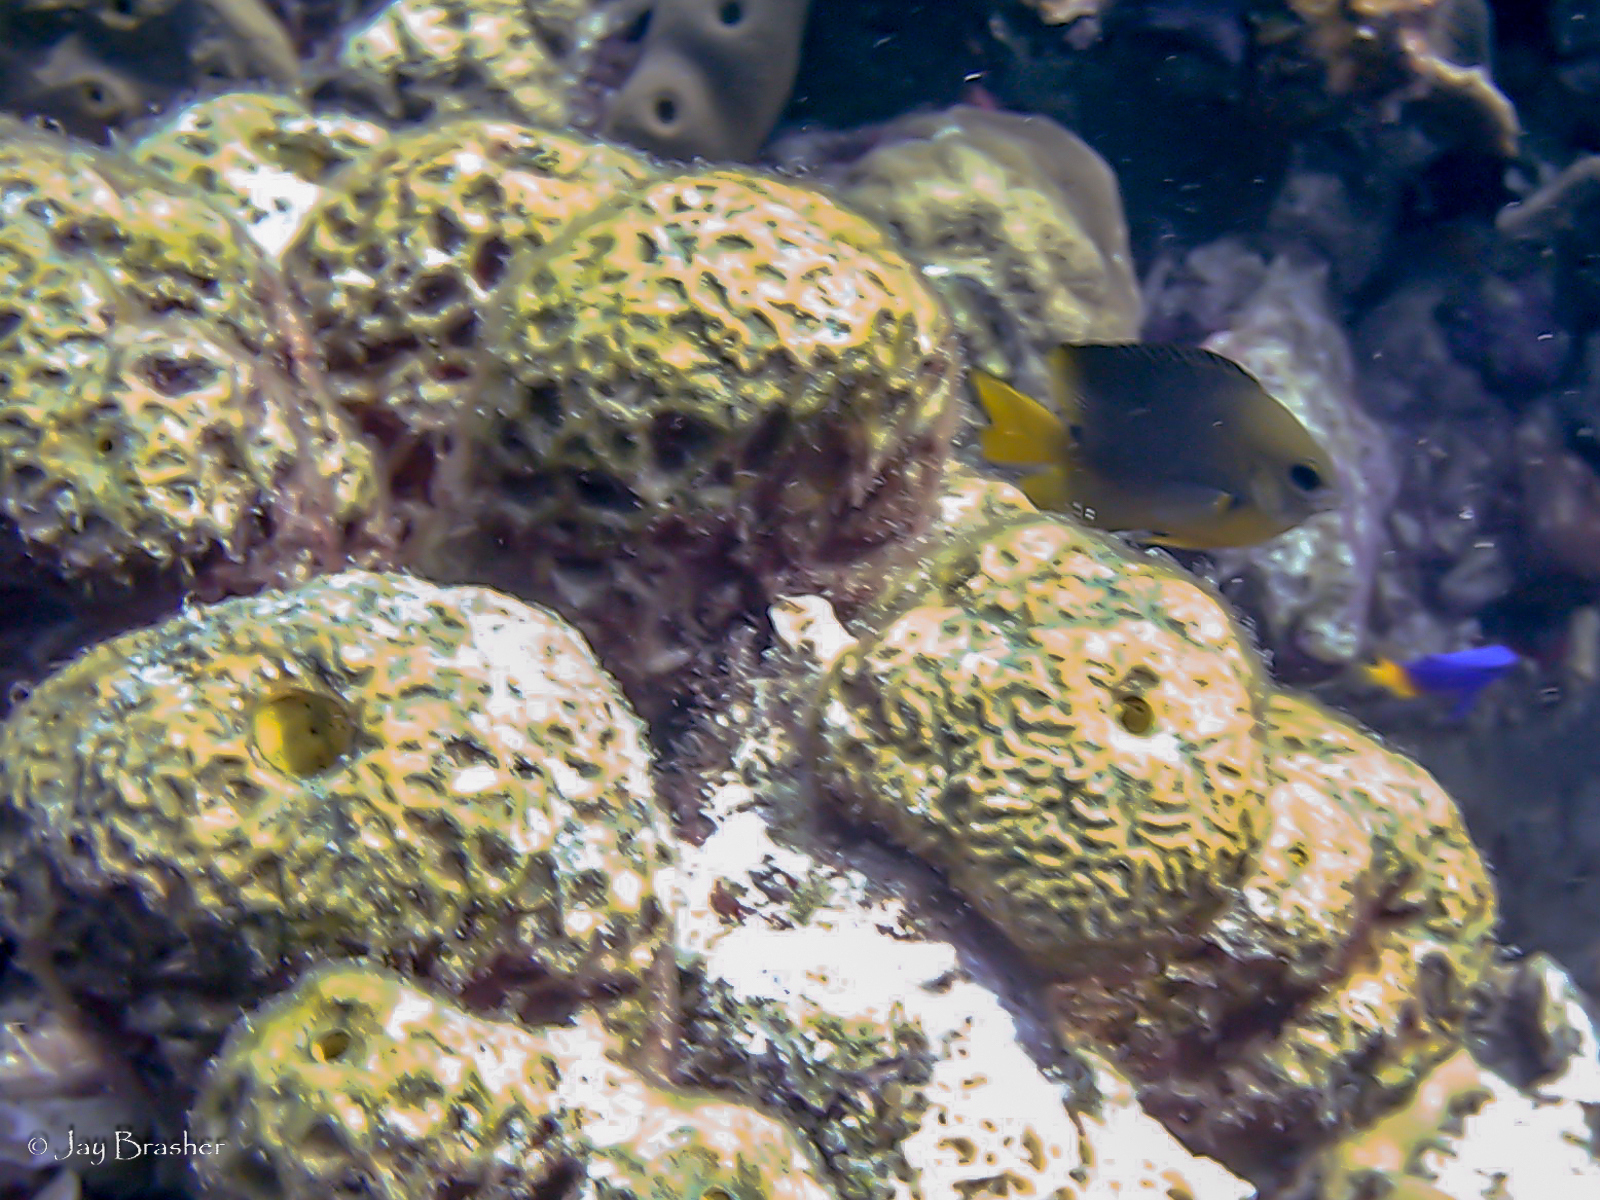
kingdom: Animalia
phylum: Chordata
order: Perciformes
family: Pomacentridae
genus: Stegastes
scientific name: Stegastes planifrons
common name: Threespot damselfish
